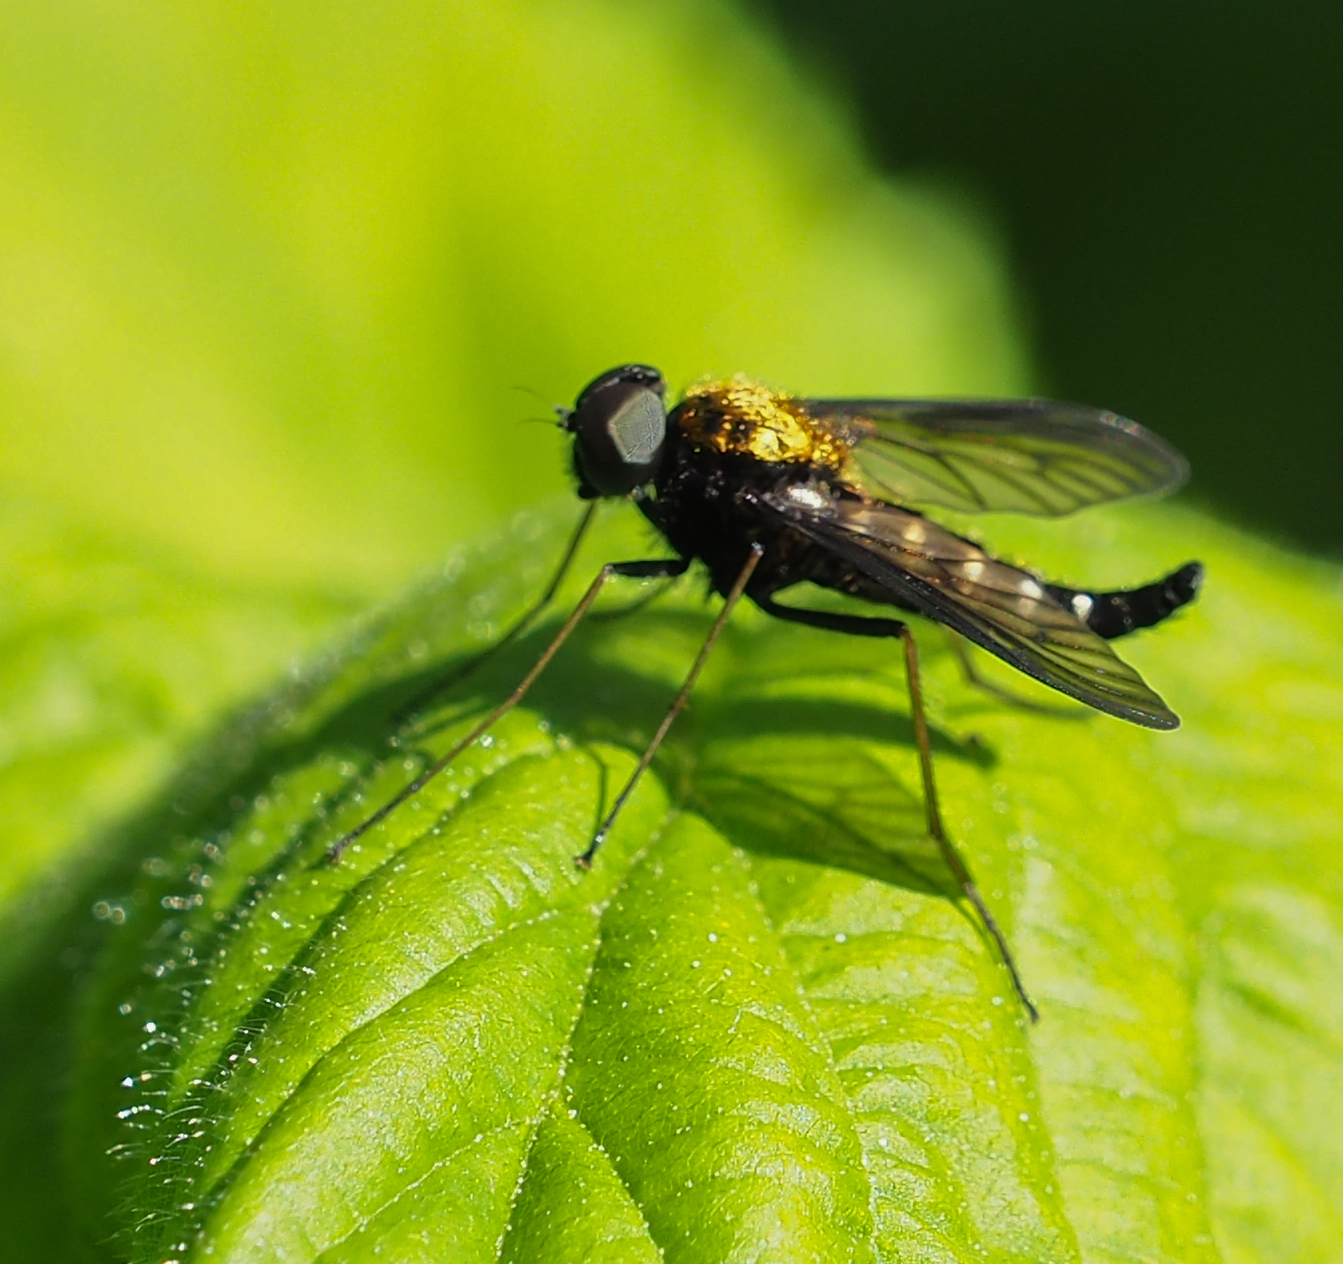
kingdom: Animalia
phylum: Arthropoda
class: Insecta
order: Diptera
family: Rhagionidae
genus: Chrysopilus
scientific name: Chrysopilus thoracicus
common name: Golden-backed snipe fly
